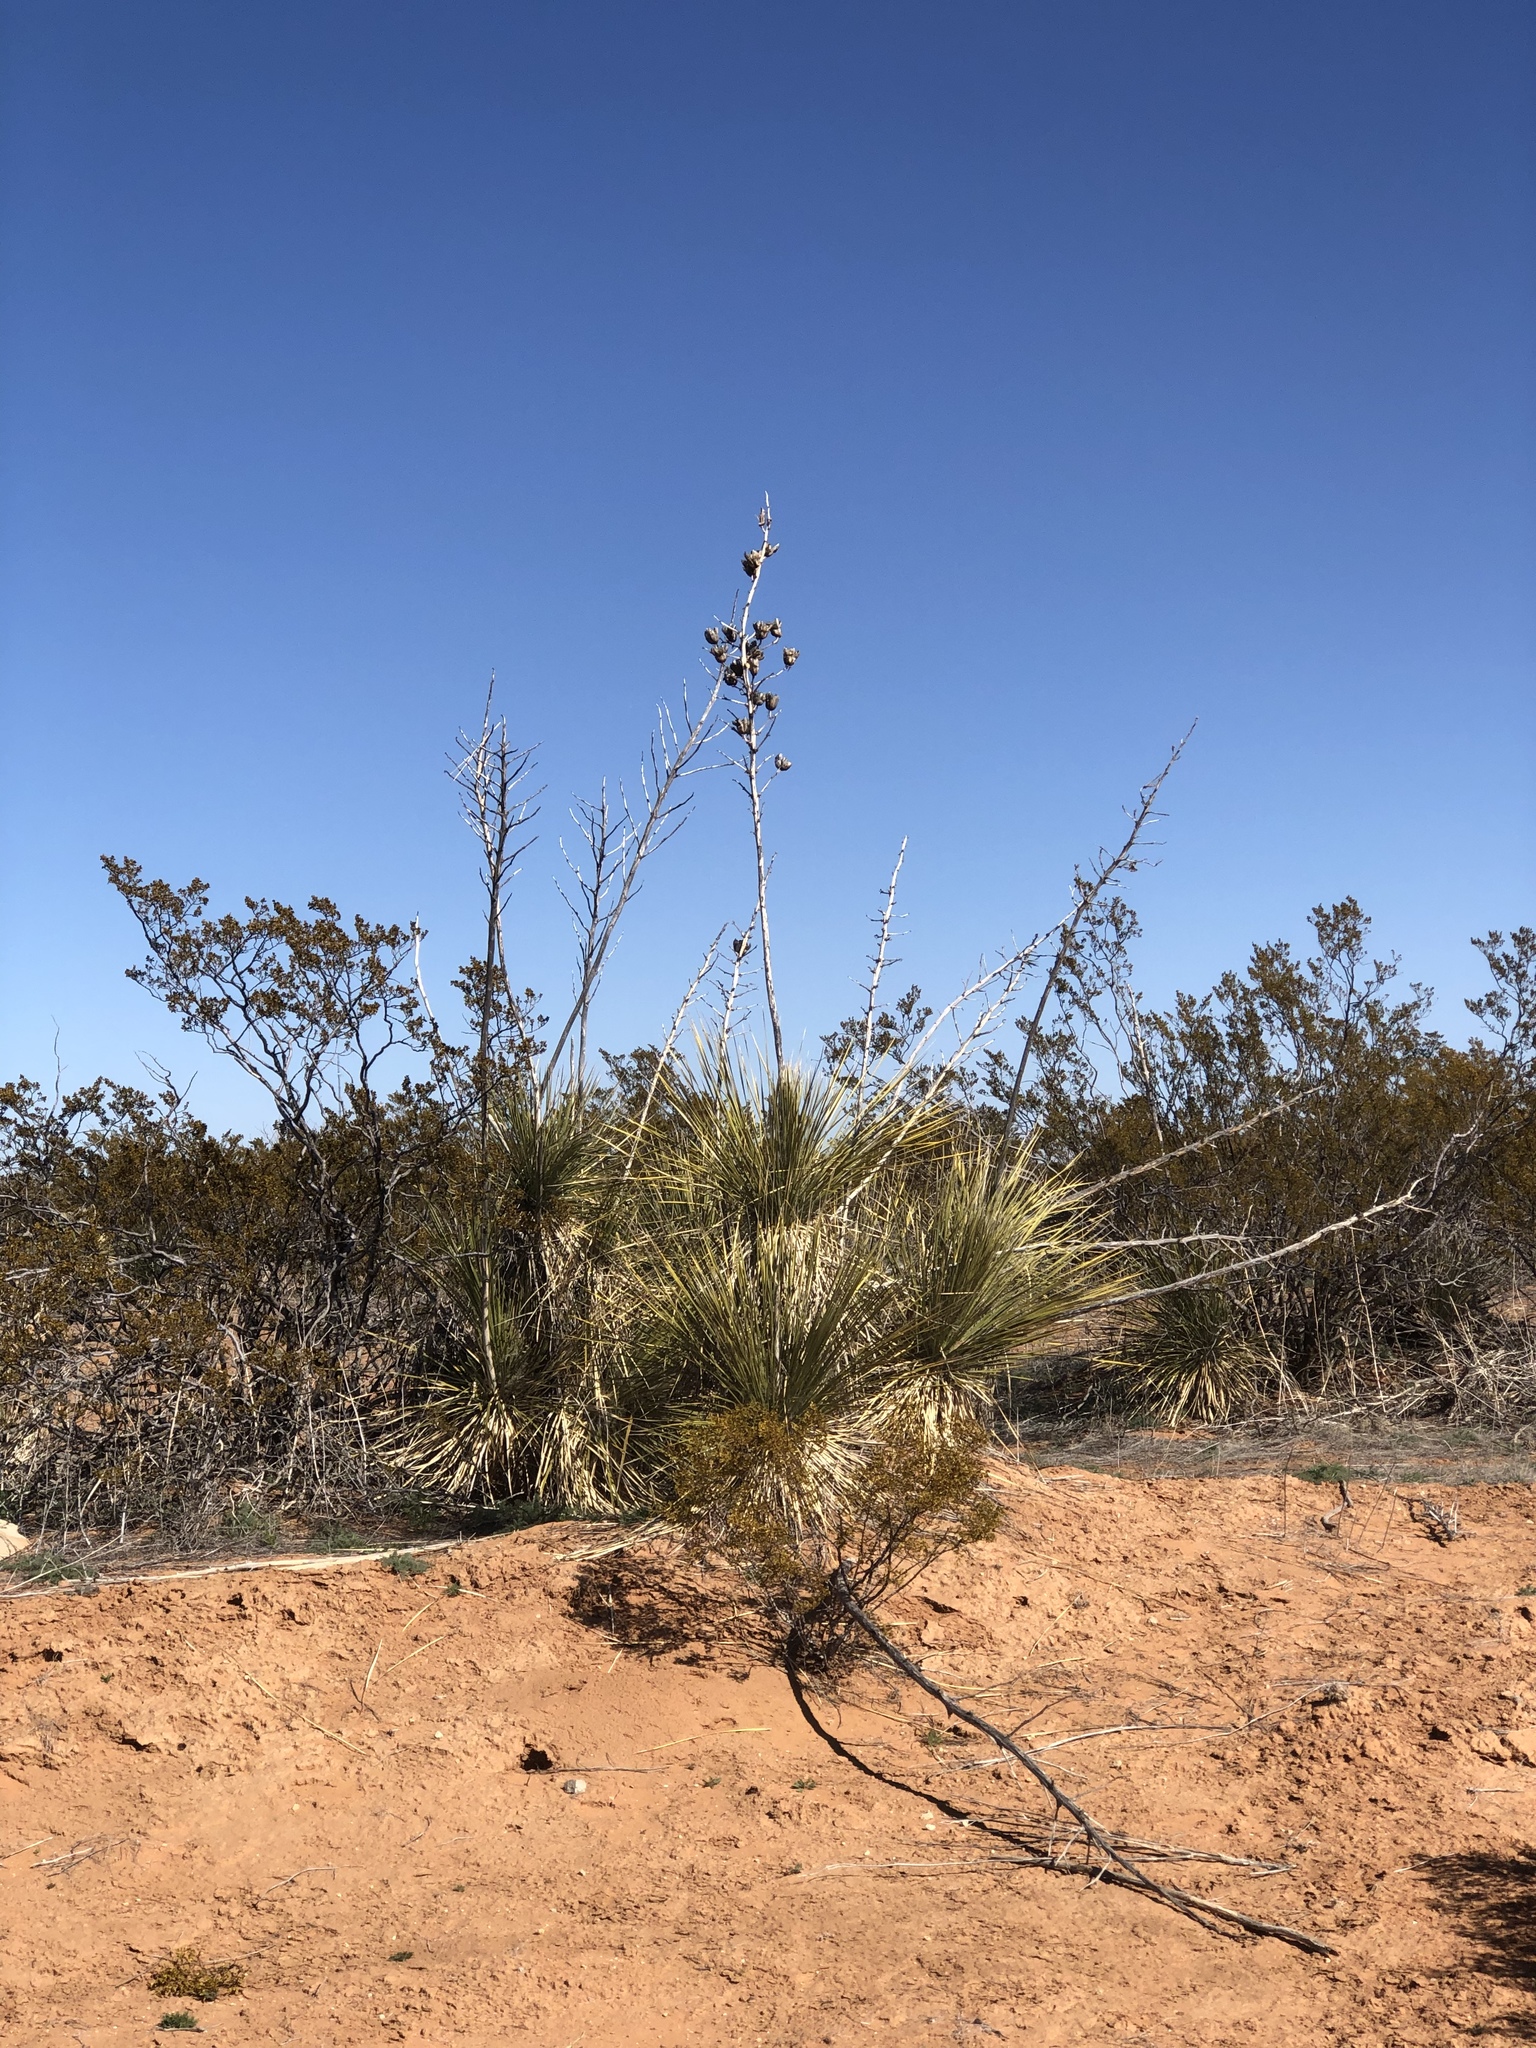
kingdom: Plantae
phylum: Tracheophyta
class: Liliopsida
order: Asparagales
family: Asparagaceae
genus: Yucca
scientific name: Yucca elata
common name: Palmella
